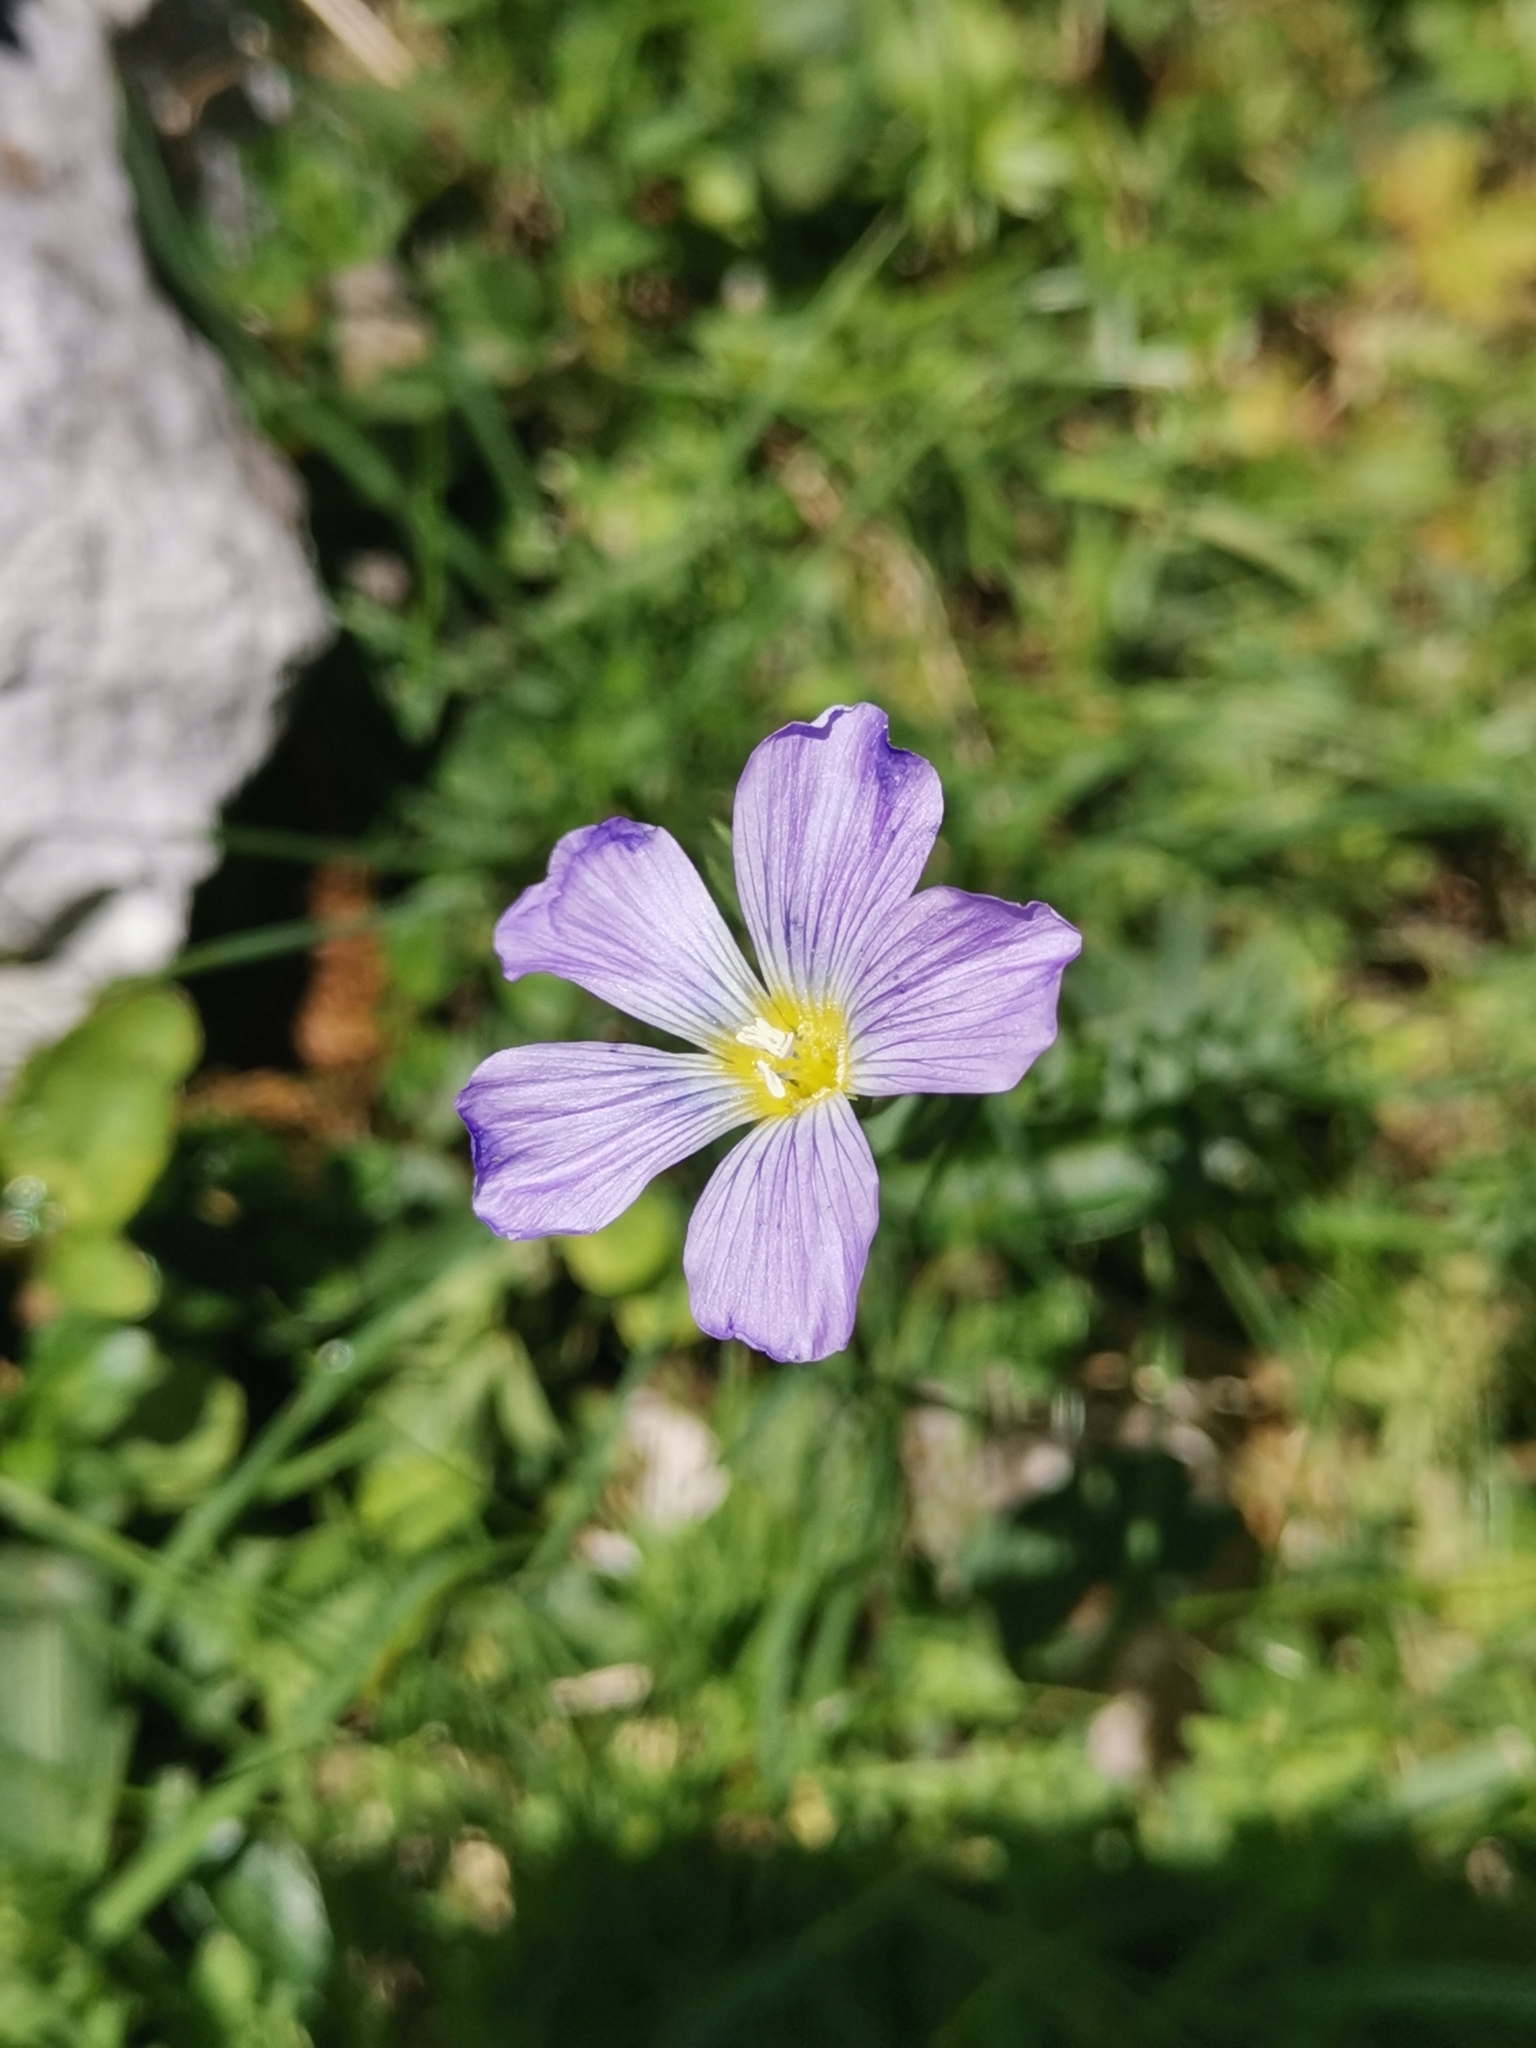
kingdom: Plantae
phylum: Tracheophyta
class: Magnoliopsida
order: Malpighiales
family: Linaceae
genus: Linum
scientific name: Linum alpinum
